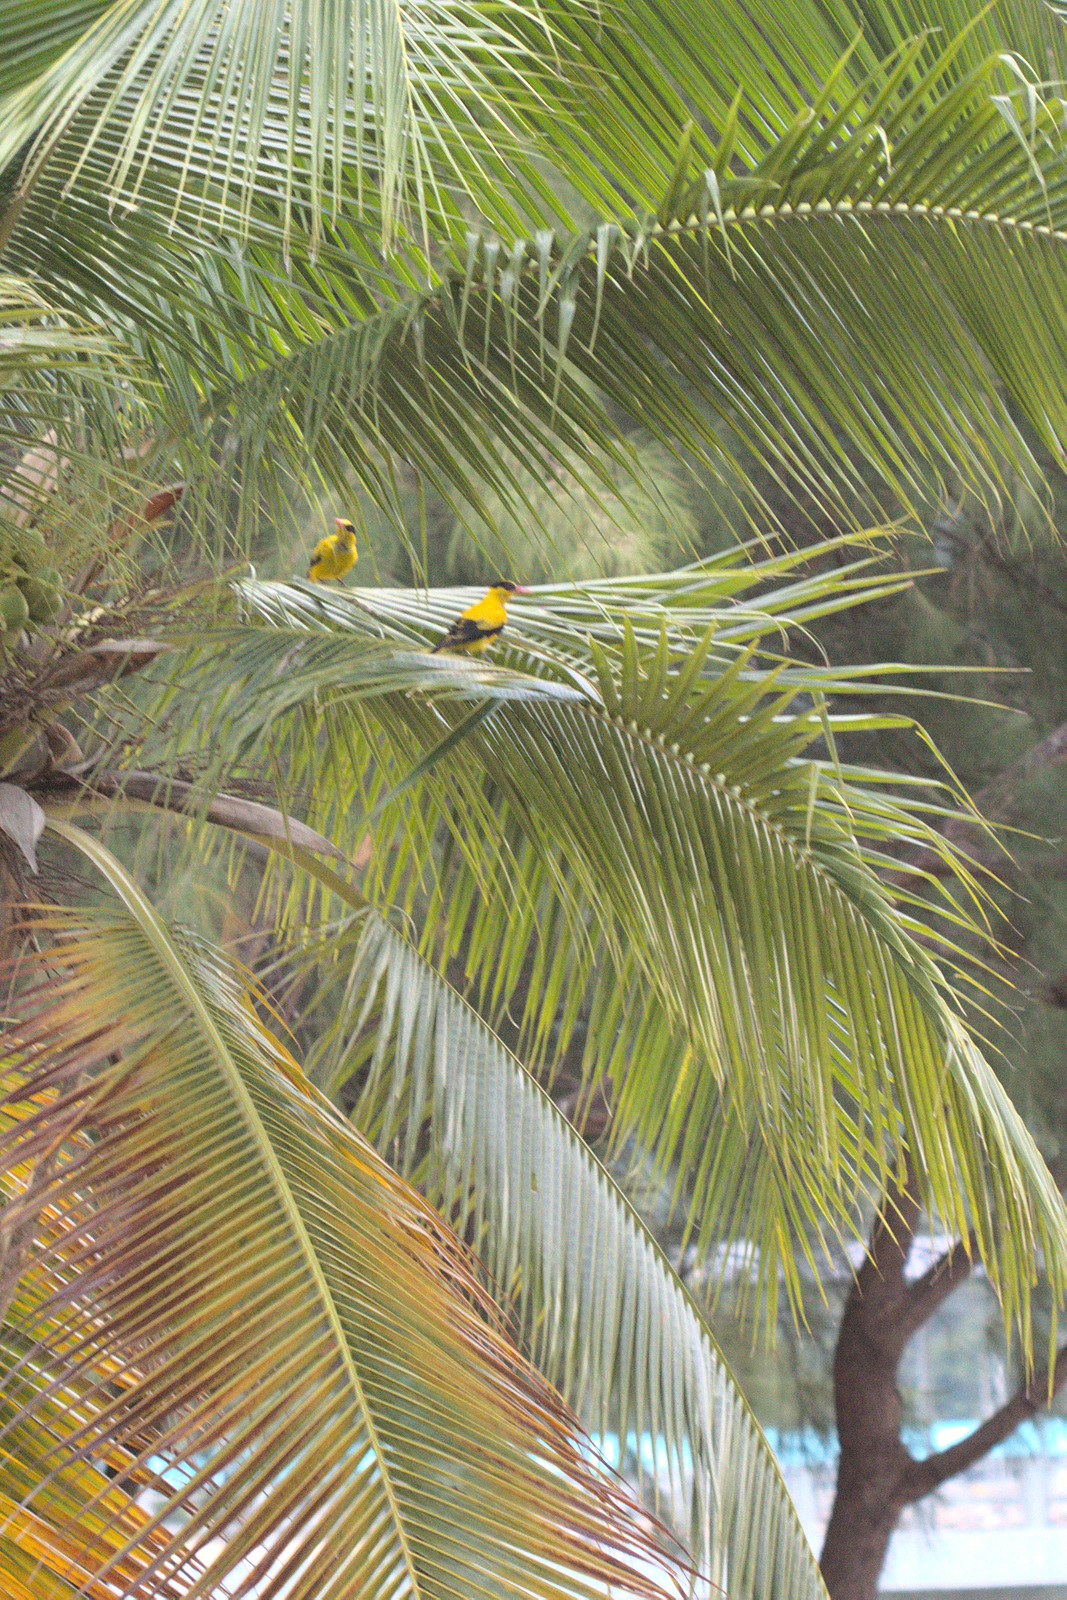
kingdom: Animalia
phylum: Chordata
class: Aves
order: Passeriformes
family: Oriolidae
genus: Oriolus
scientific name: Oriolus chinensis
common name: Black-naped oriole
